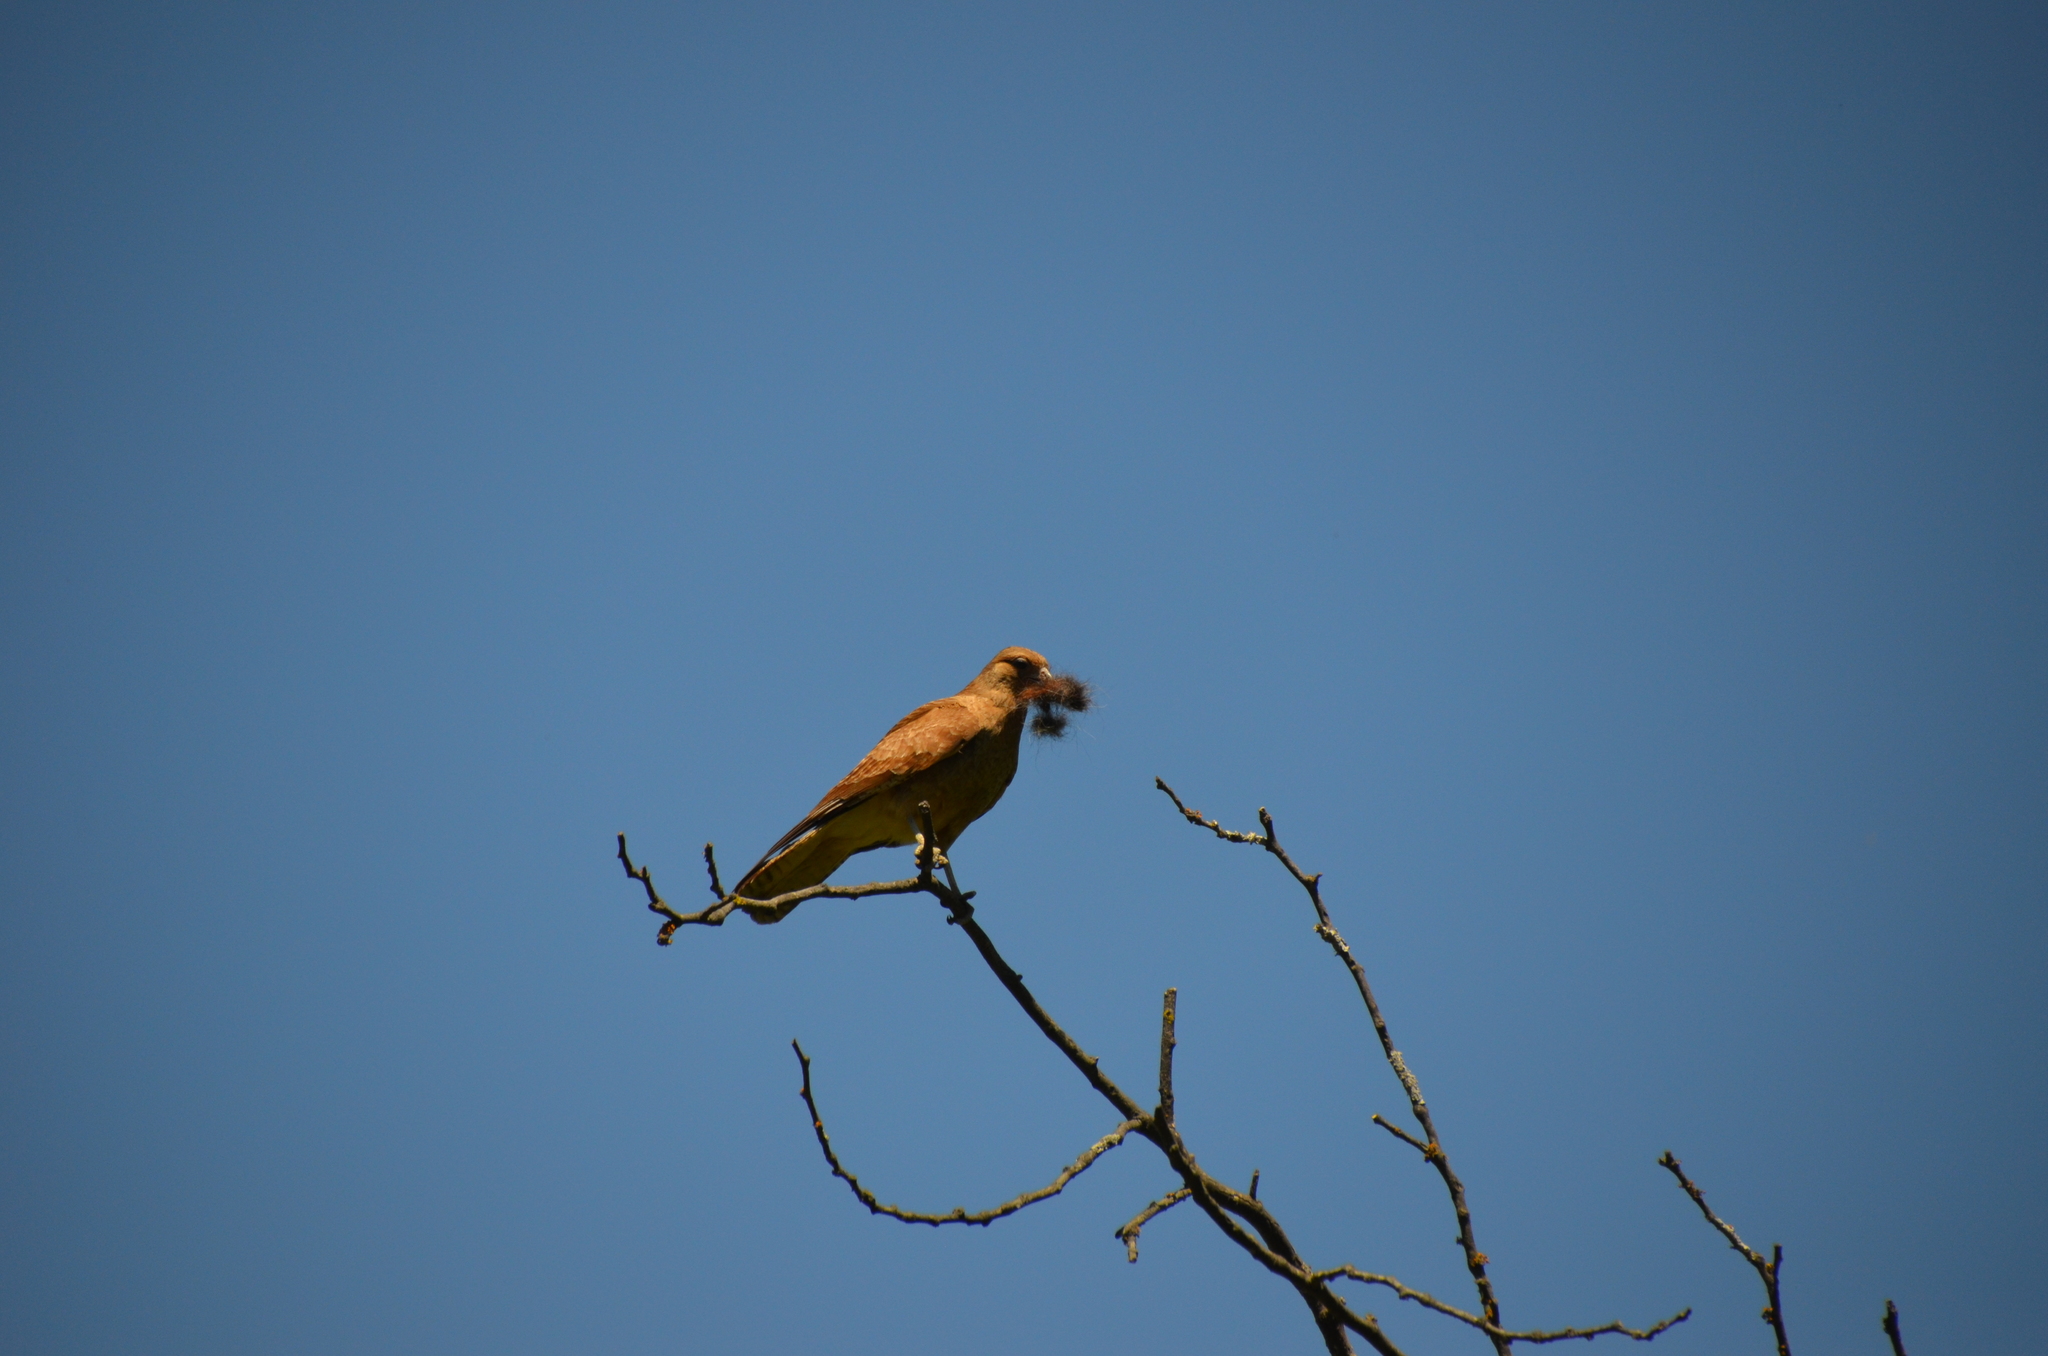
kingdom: Animalia
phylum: Chordata
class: Aves
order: Falconiformes
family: Falconidae
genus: Daptrius
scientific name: Daptrius
